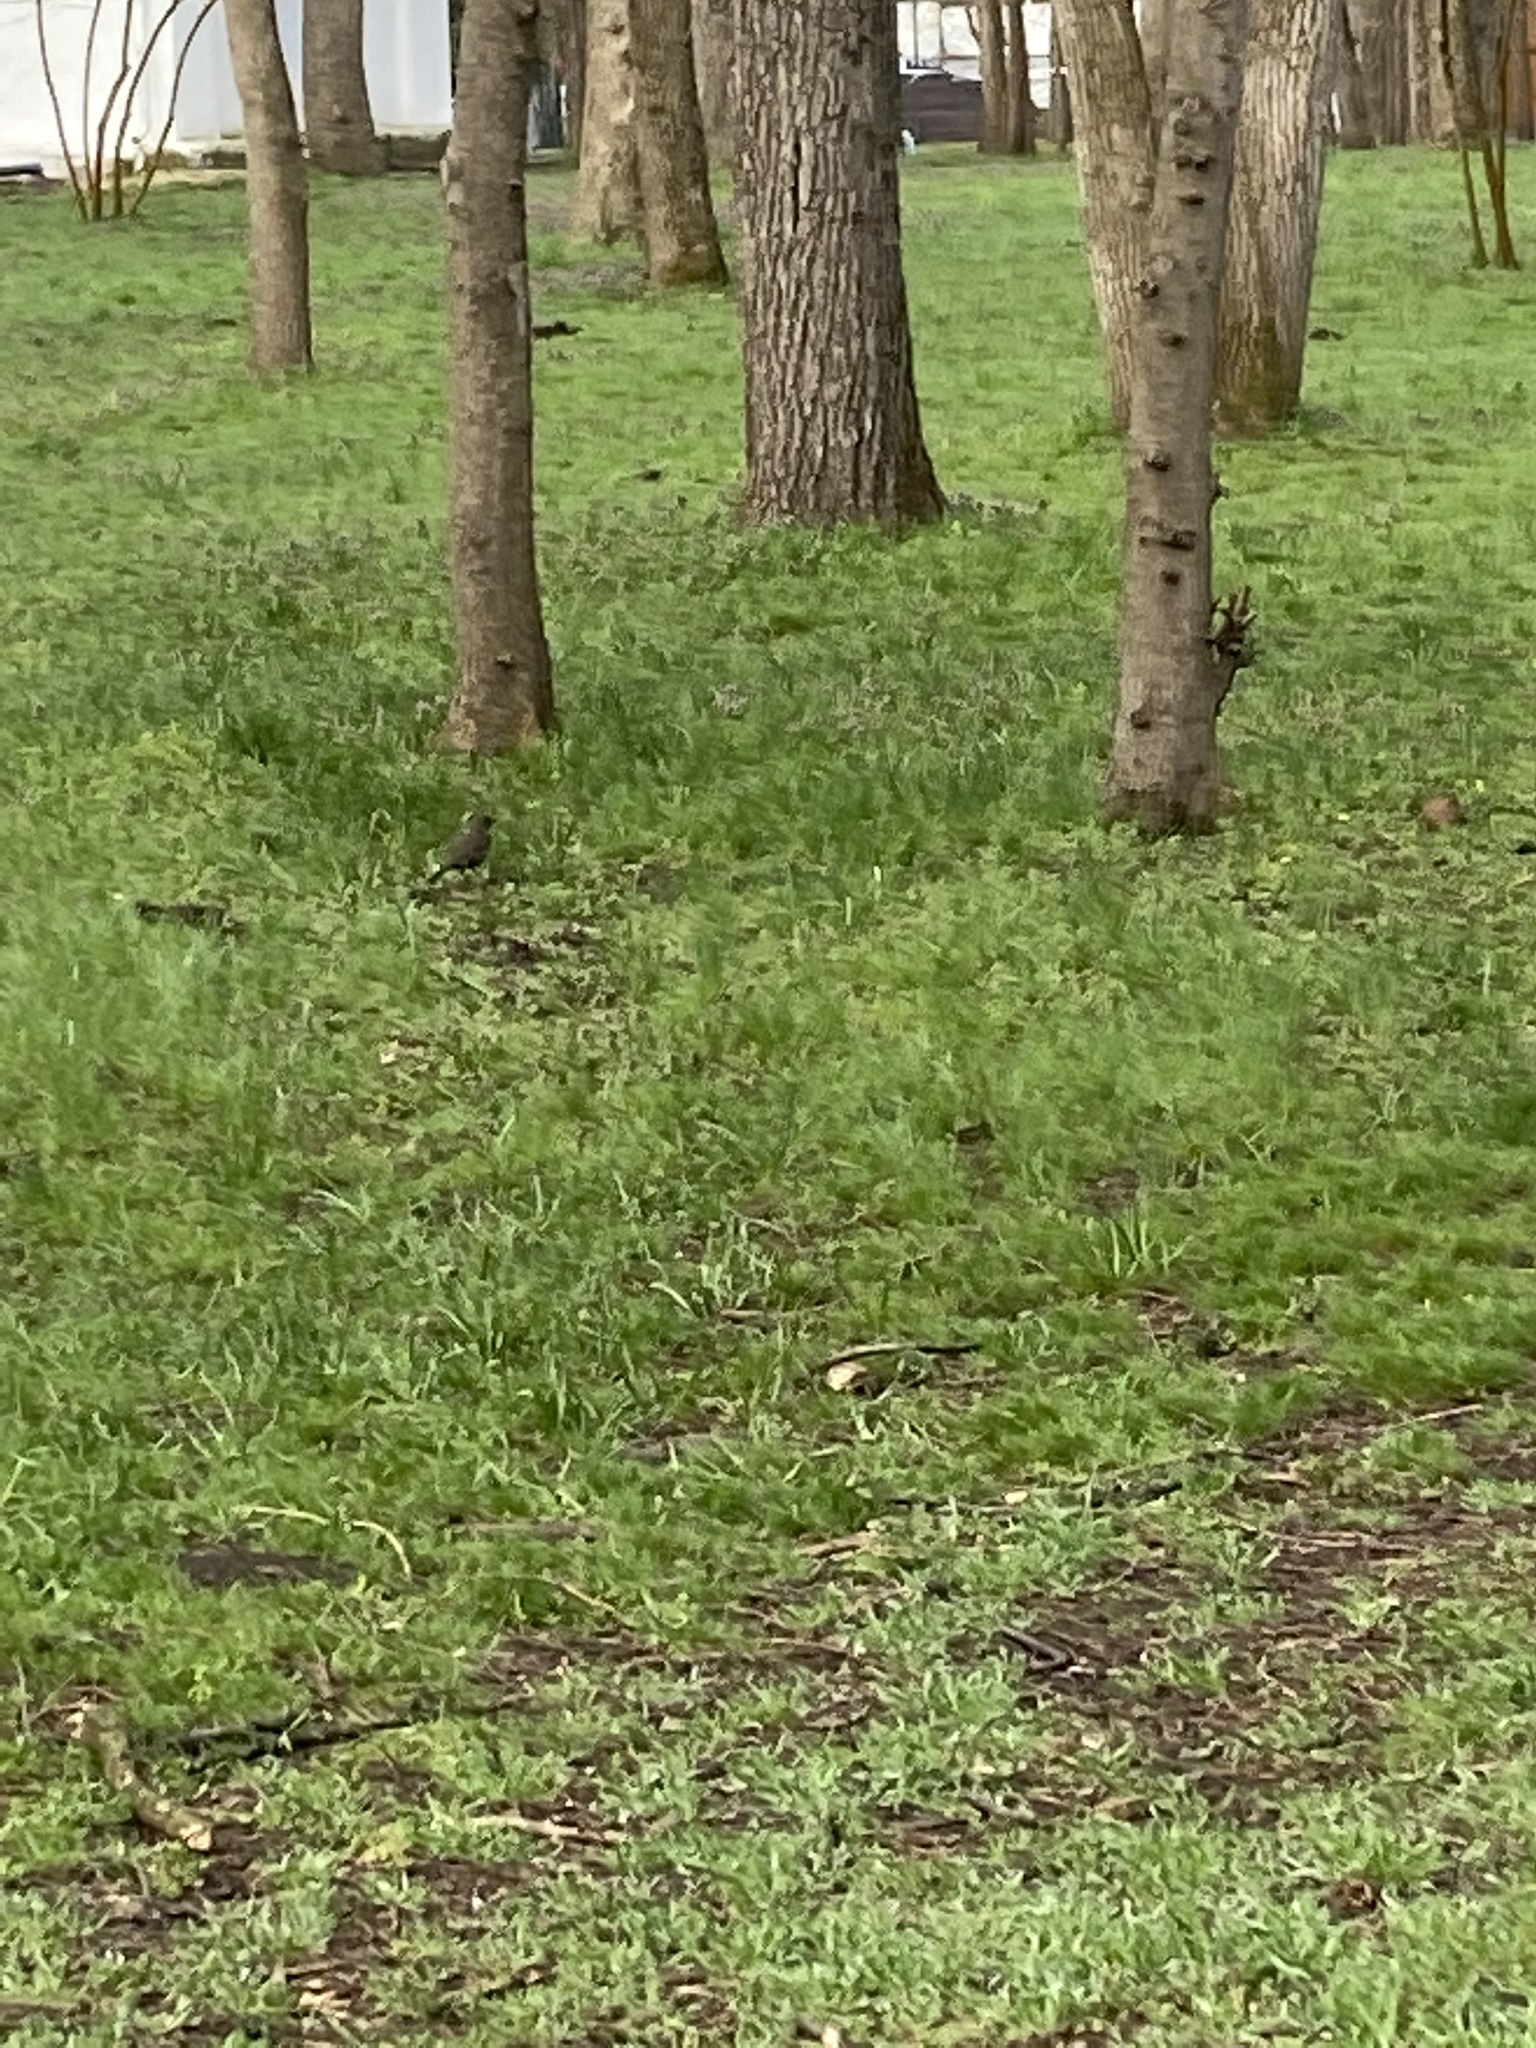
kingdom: Animalia
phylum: Chordata
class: Aves
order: Passeriformes
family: Turdidae
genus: Turdus
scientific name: Turdus merula
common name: Common blackbird
